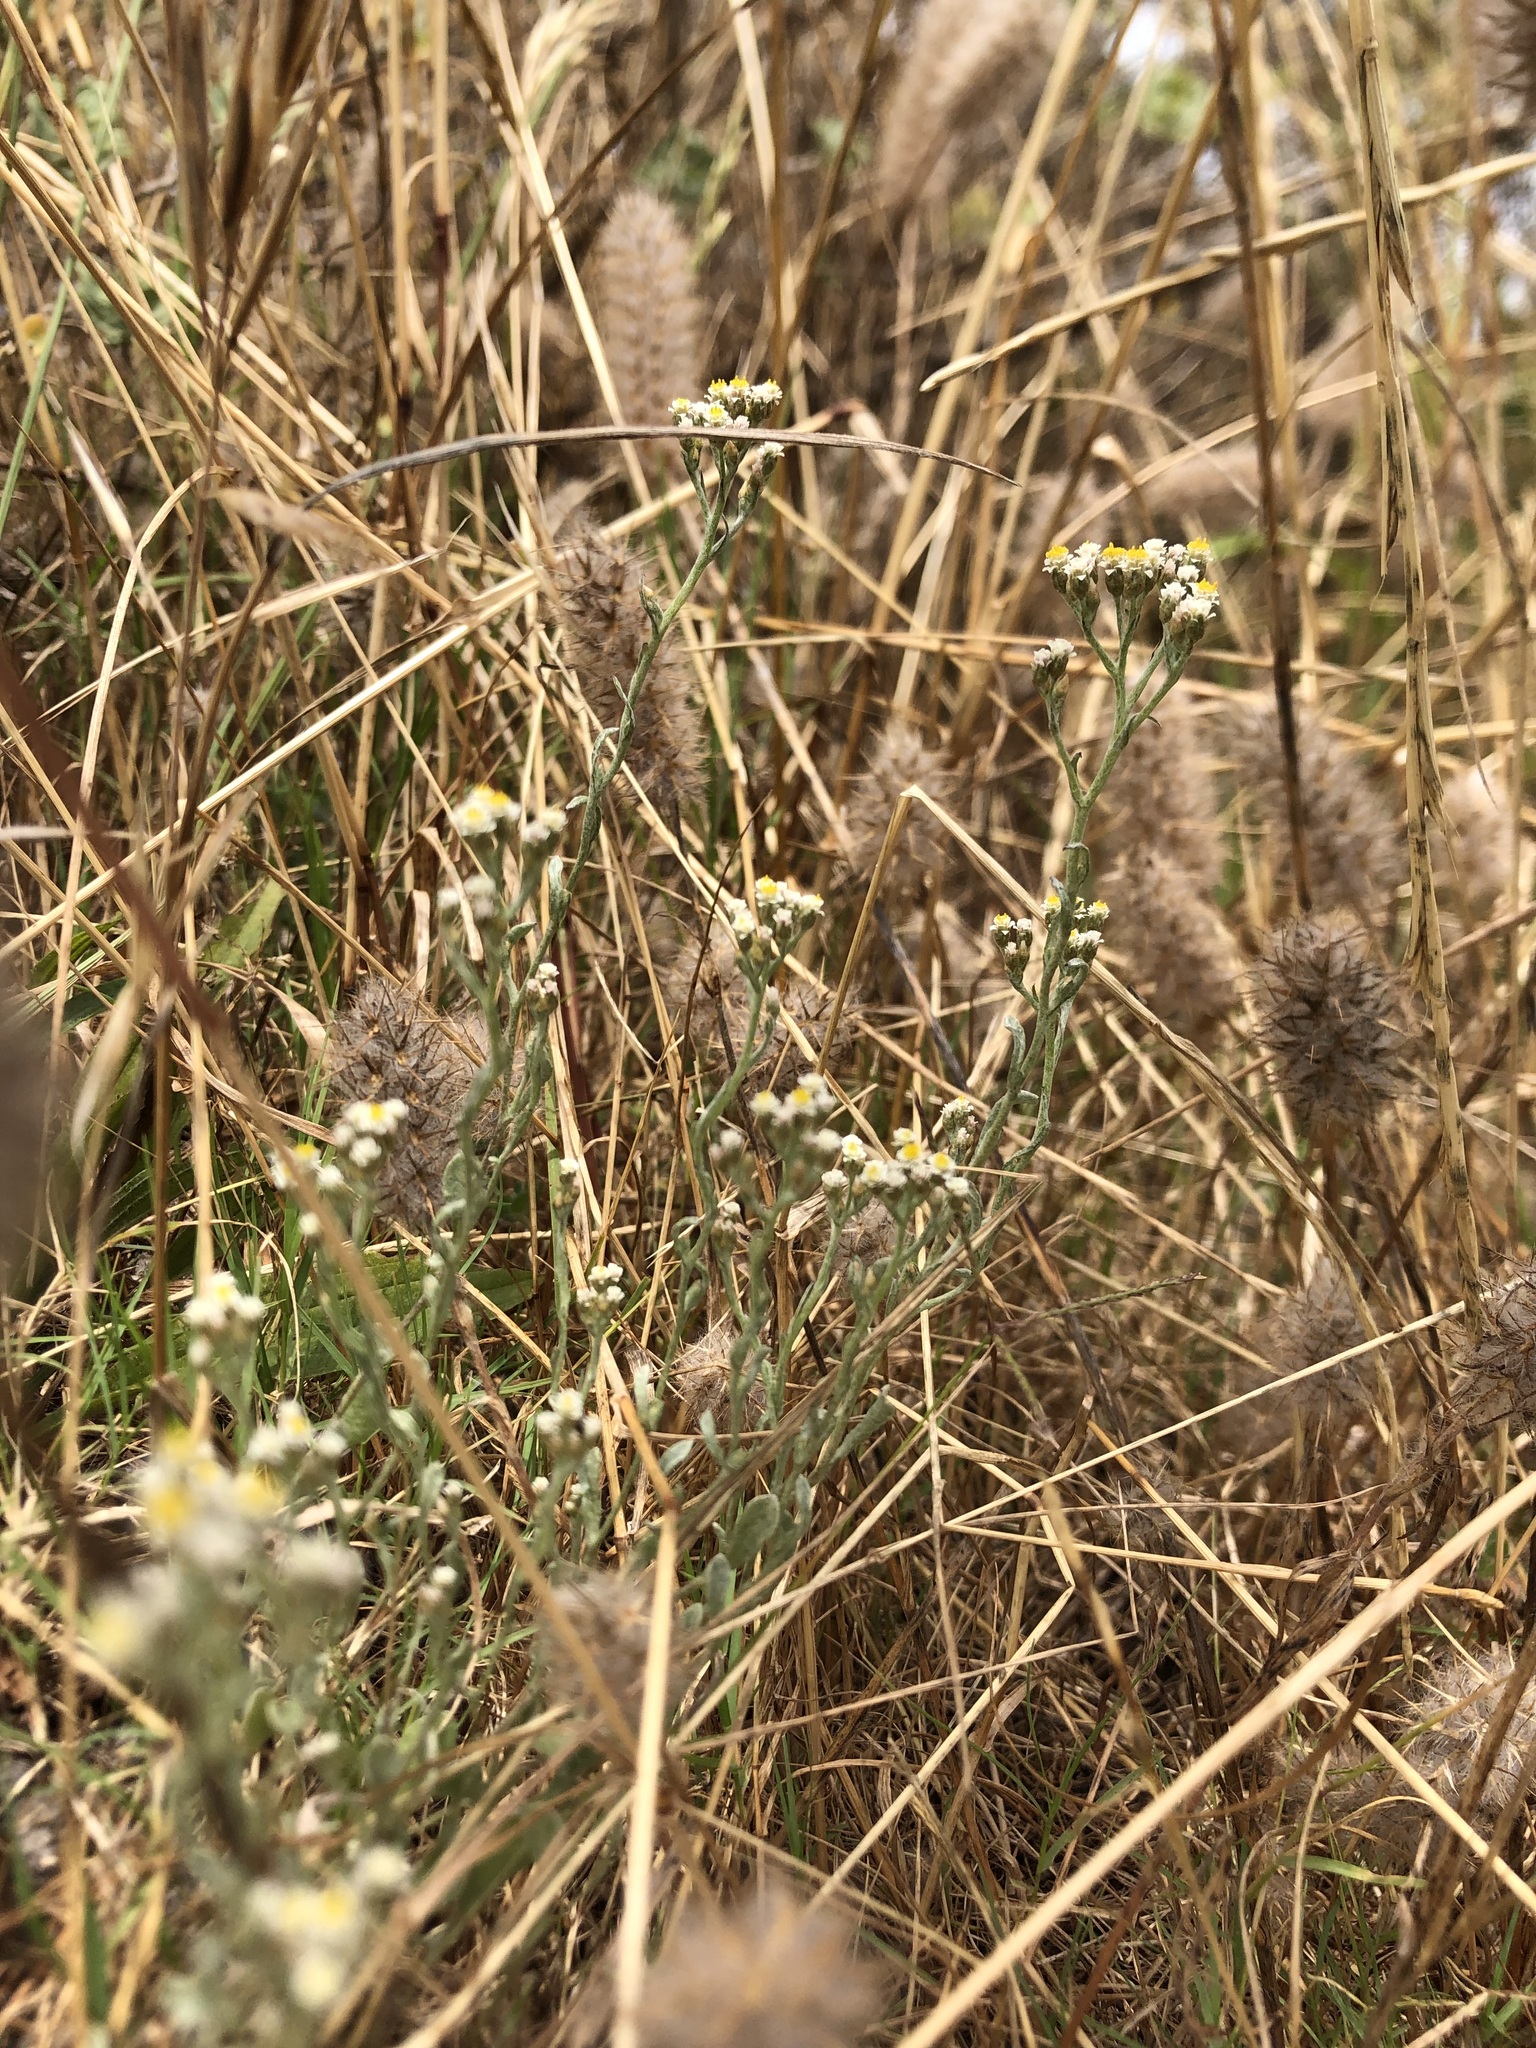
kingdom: Plantae
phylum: Tracheophyta
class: Magnoliopsida
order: Asterales
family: Asteraceae
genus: Helichrysum
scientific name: Helichrysum indicum
